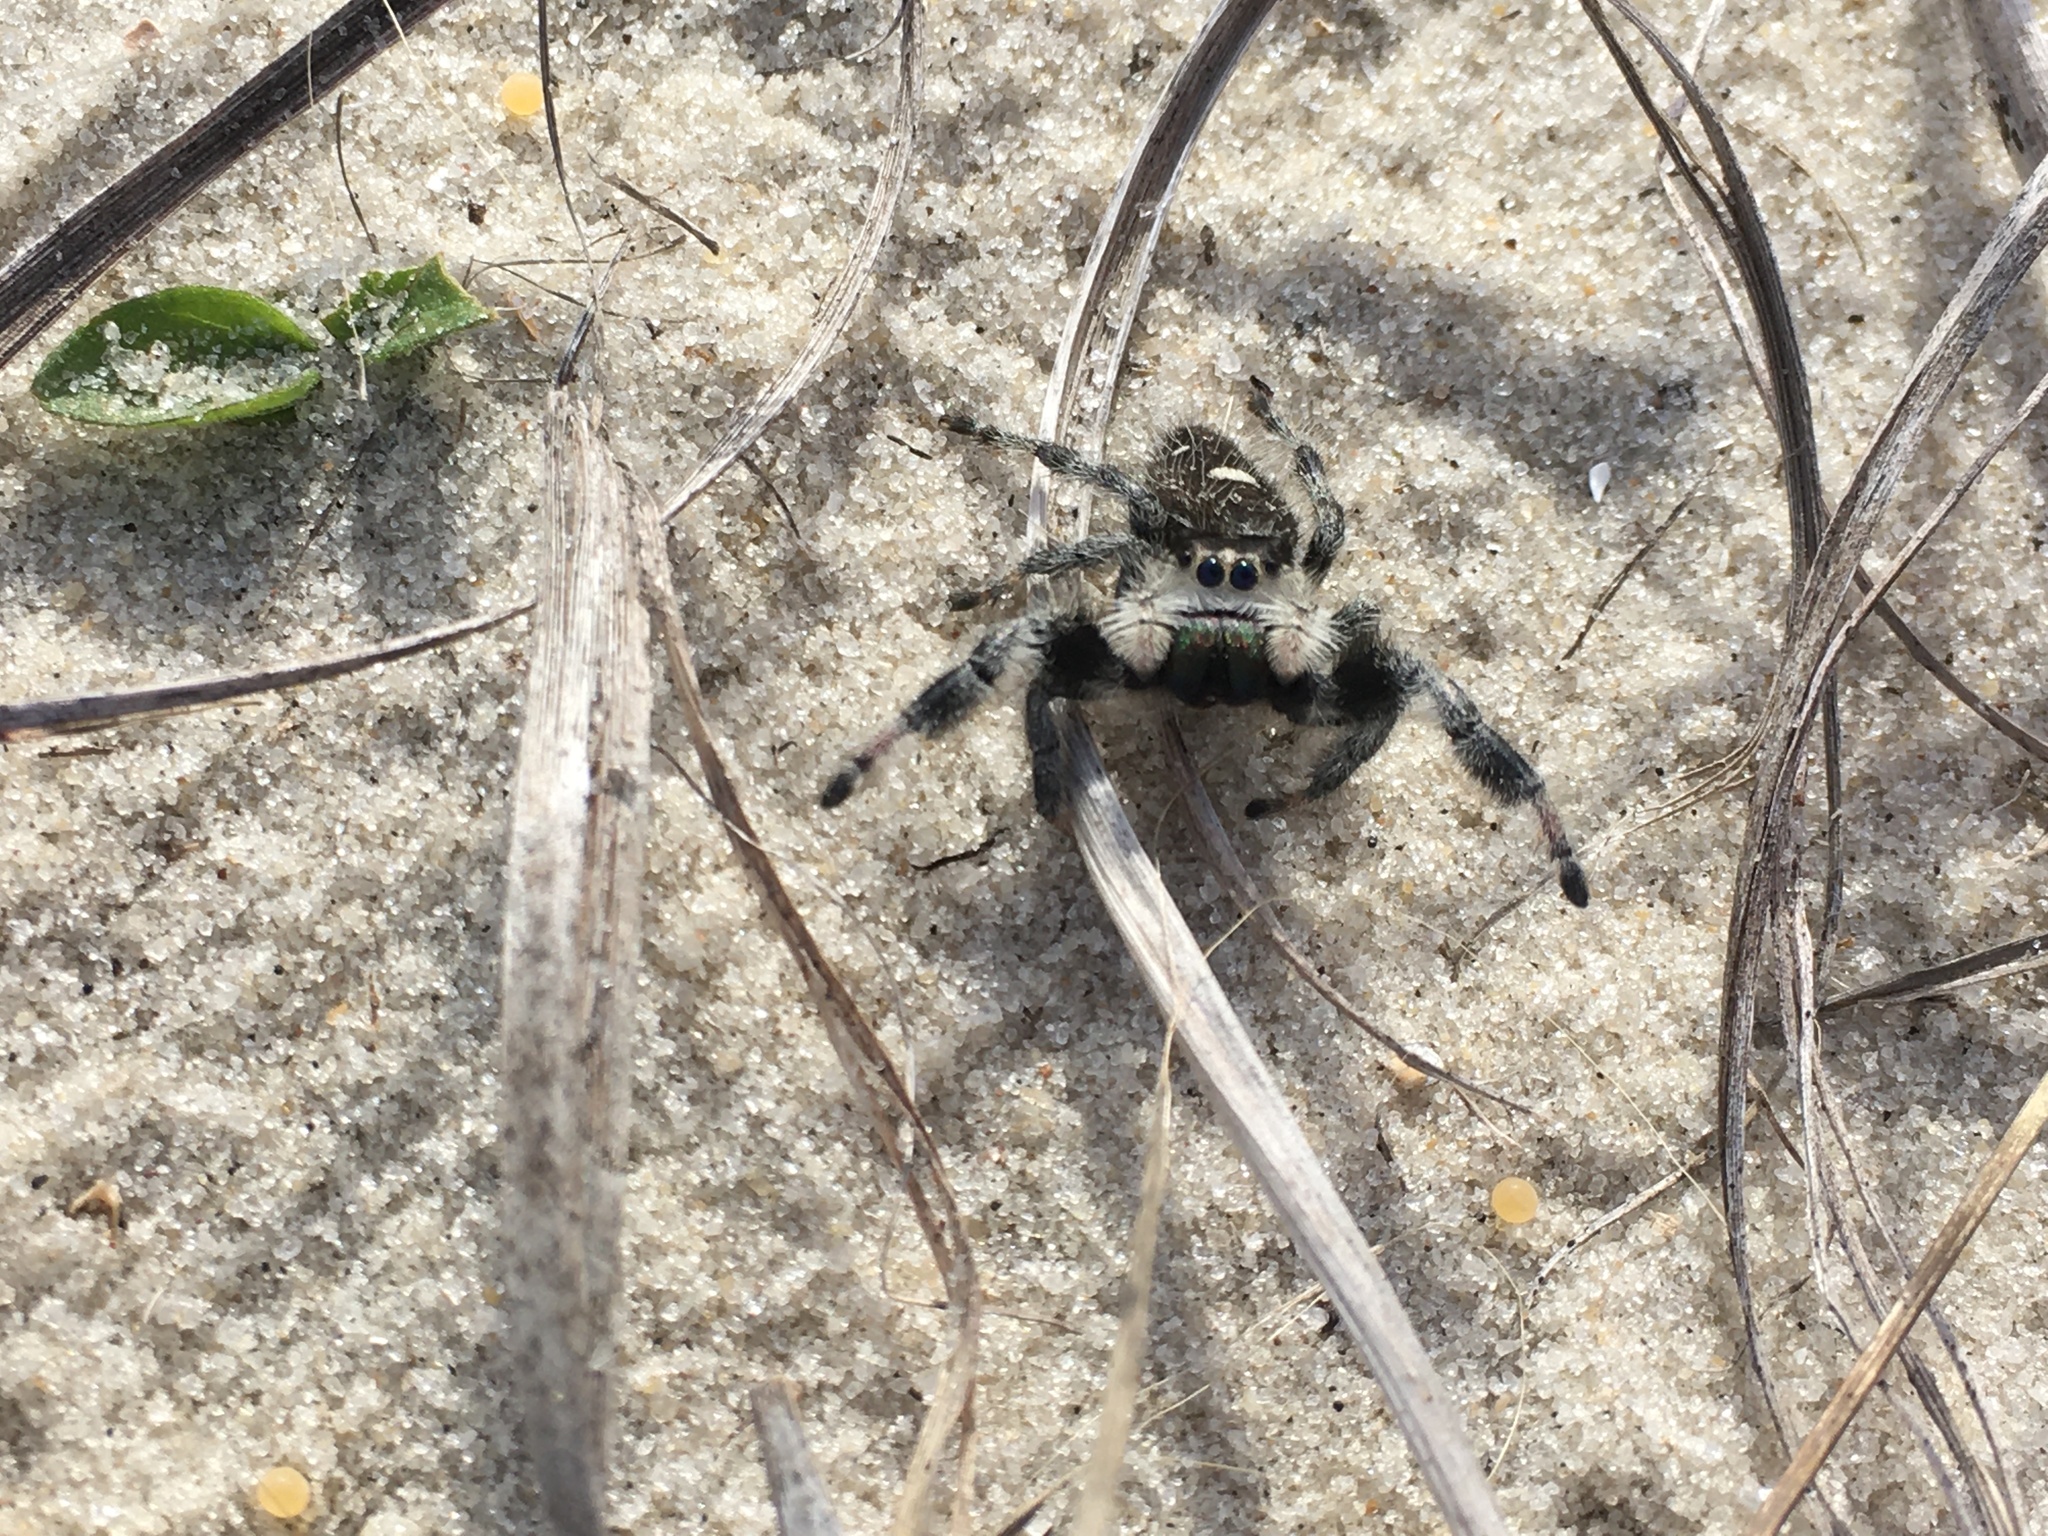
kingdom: Animalia
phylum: Arthropoda
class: Arachnida
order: Araneae
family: Salticidae
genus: Phidippus
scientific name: Phidippus regius
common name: Regal jumper
